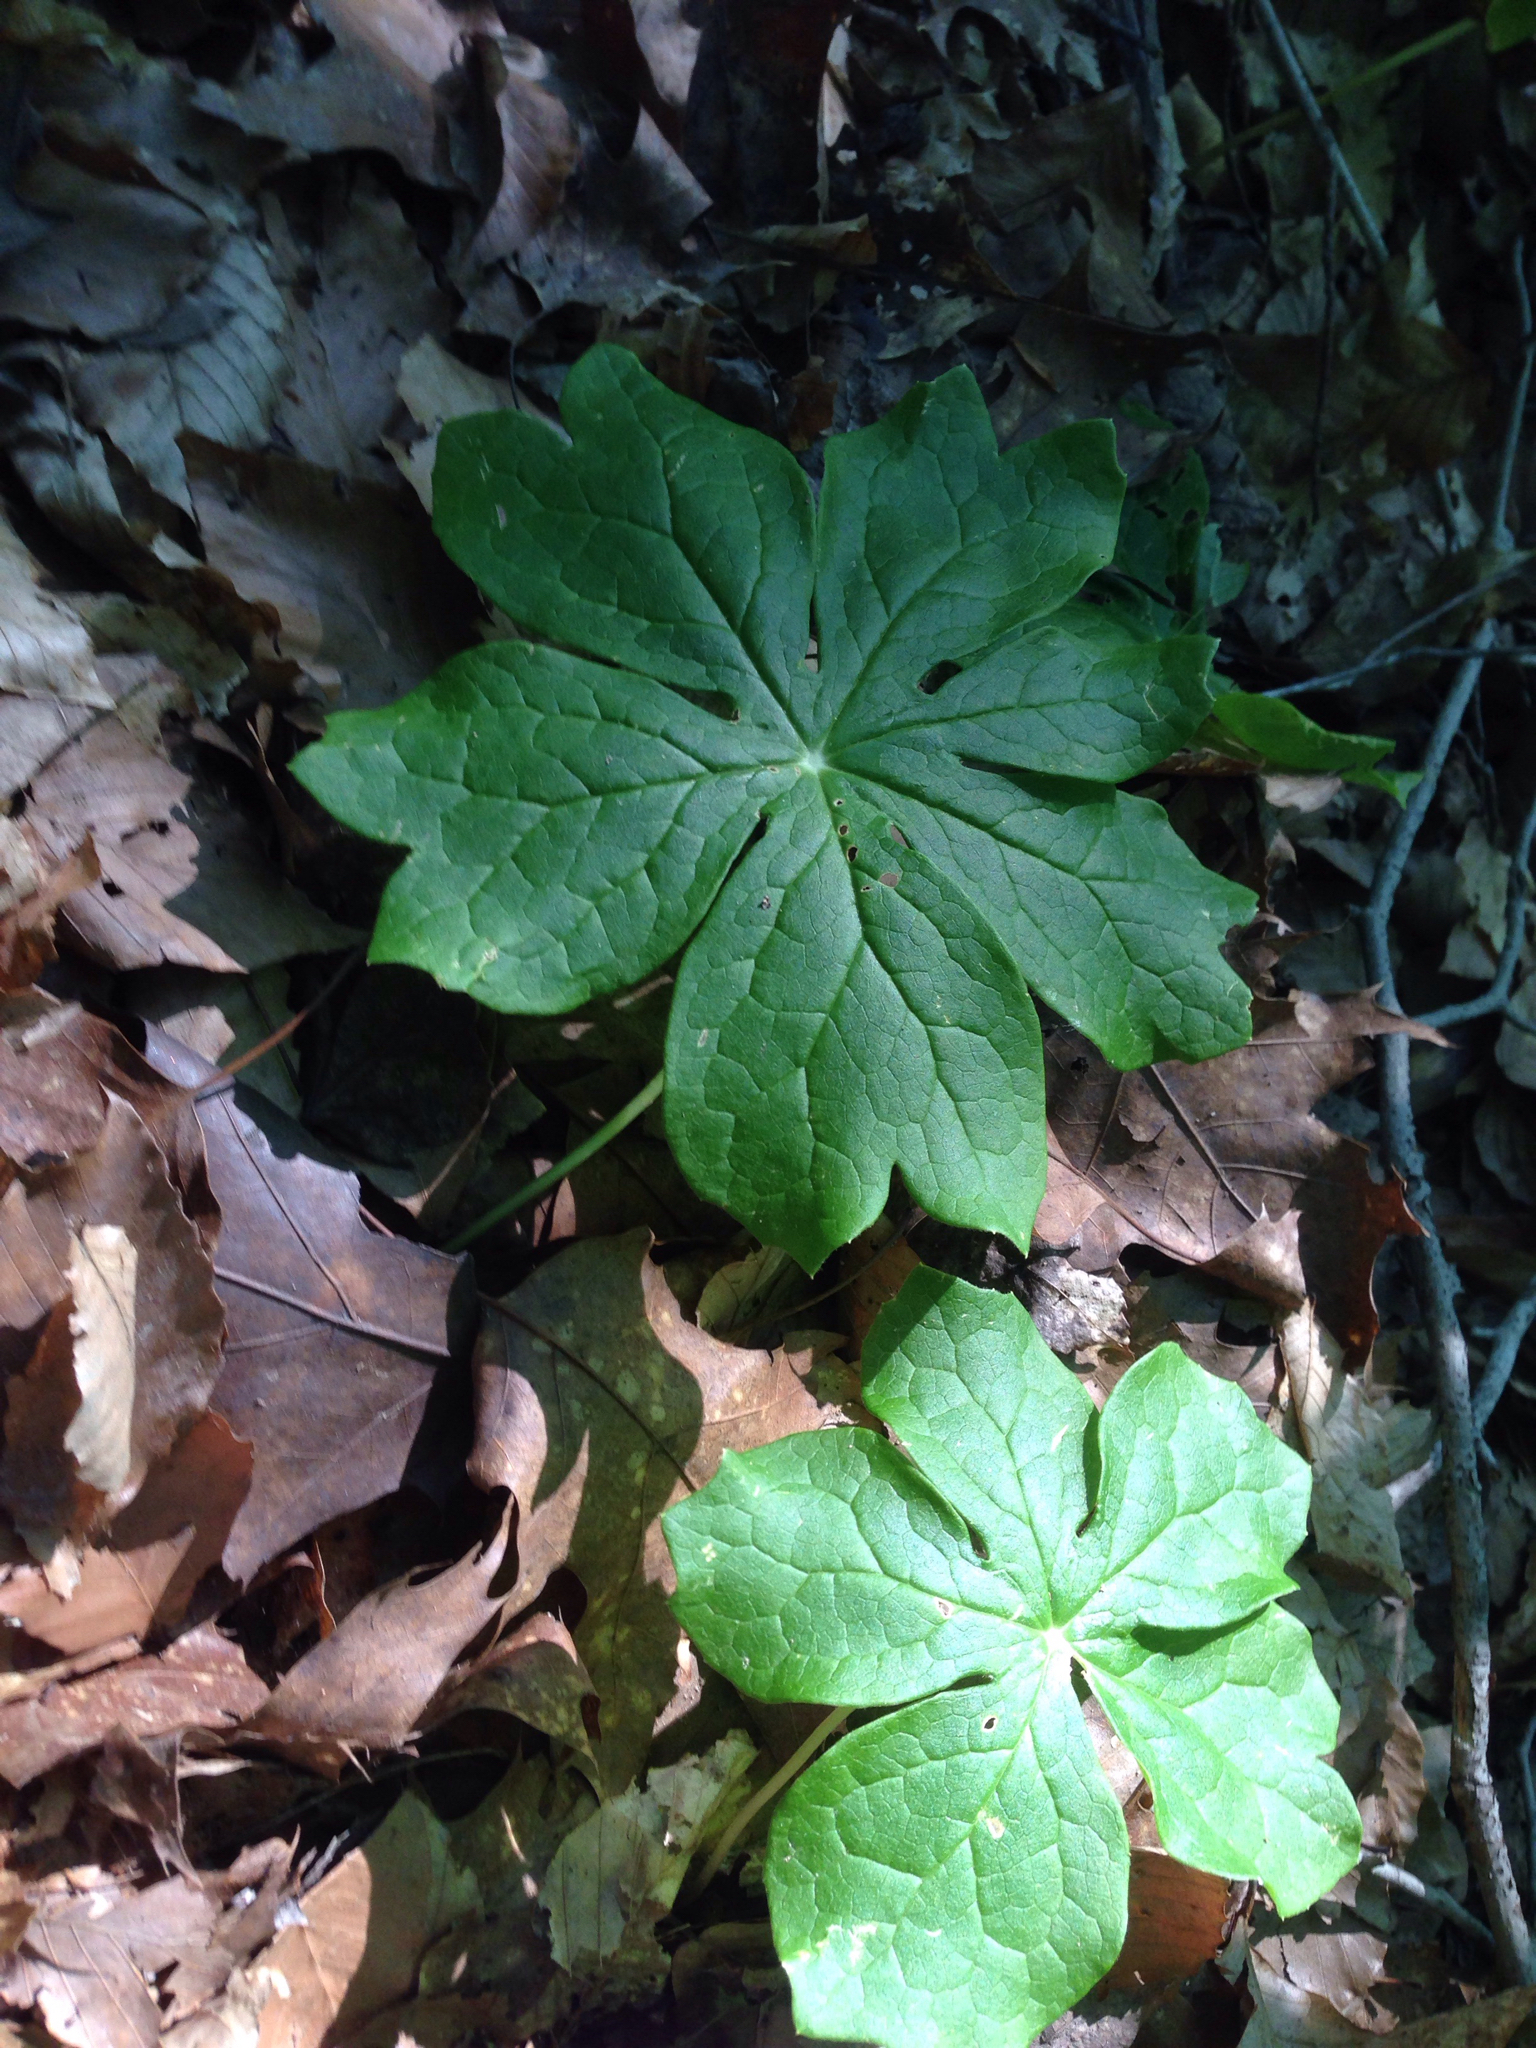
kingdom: Plantae
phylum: Tracheophyta
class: Magnoliopsida
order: Ranunculales
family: Berberidaceae
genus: Podophyllum
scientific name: Podophyllum peltatum
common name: Wild mandrake
